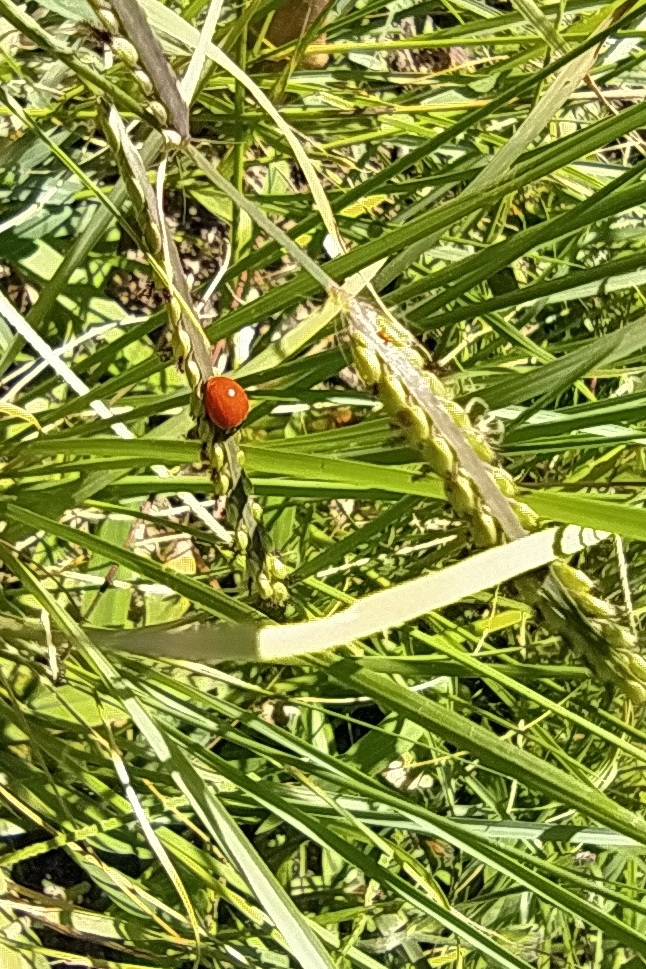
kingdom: Animalia
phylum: Arthropoda
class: Insecta
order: Coleoptera
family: Coccinellidae
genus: Cycloneda
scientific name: Cycloneda emarginata
